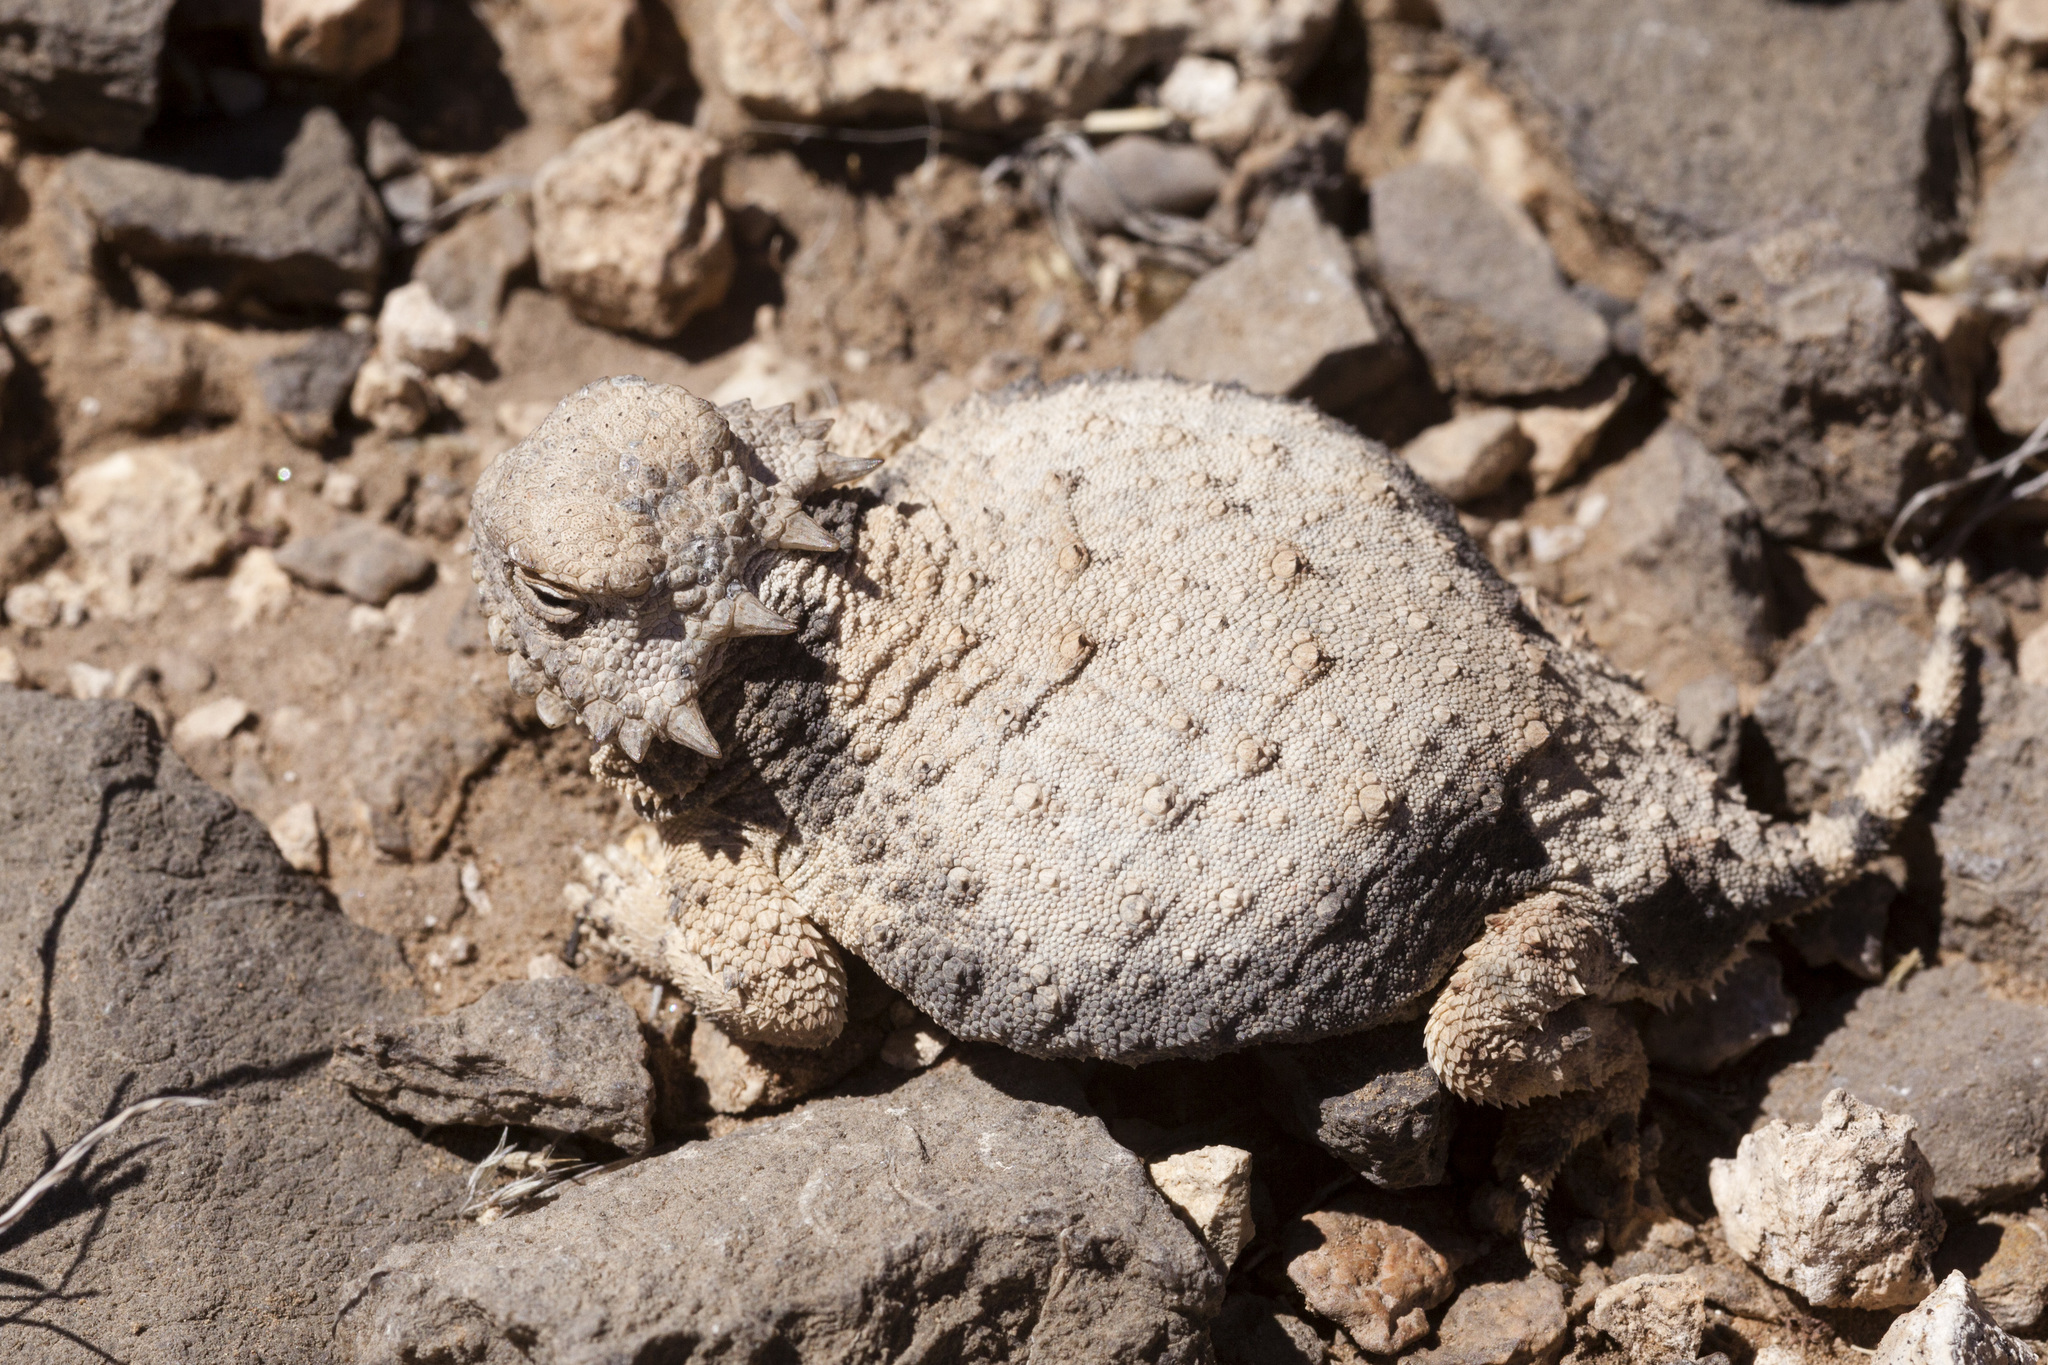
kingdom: Animalia
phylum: Chordata
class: Squamata
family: Phrynosomatidae
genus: Phrynosoma
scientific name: Phrynosoma modestum
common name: Roundtail horned lizard
